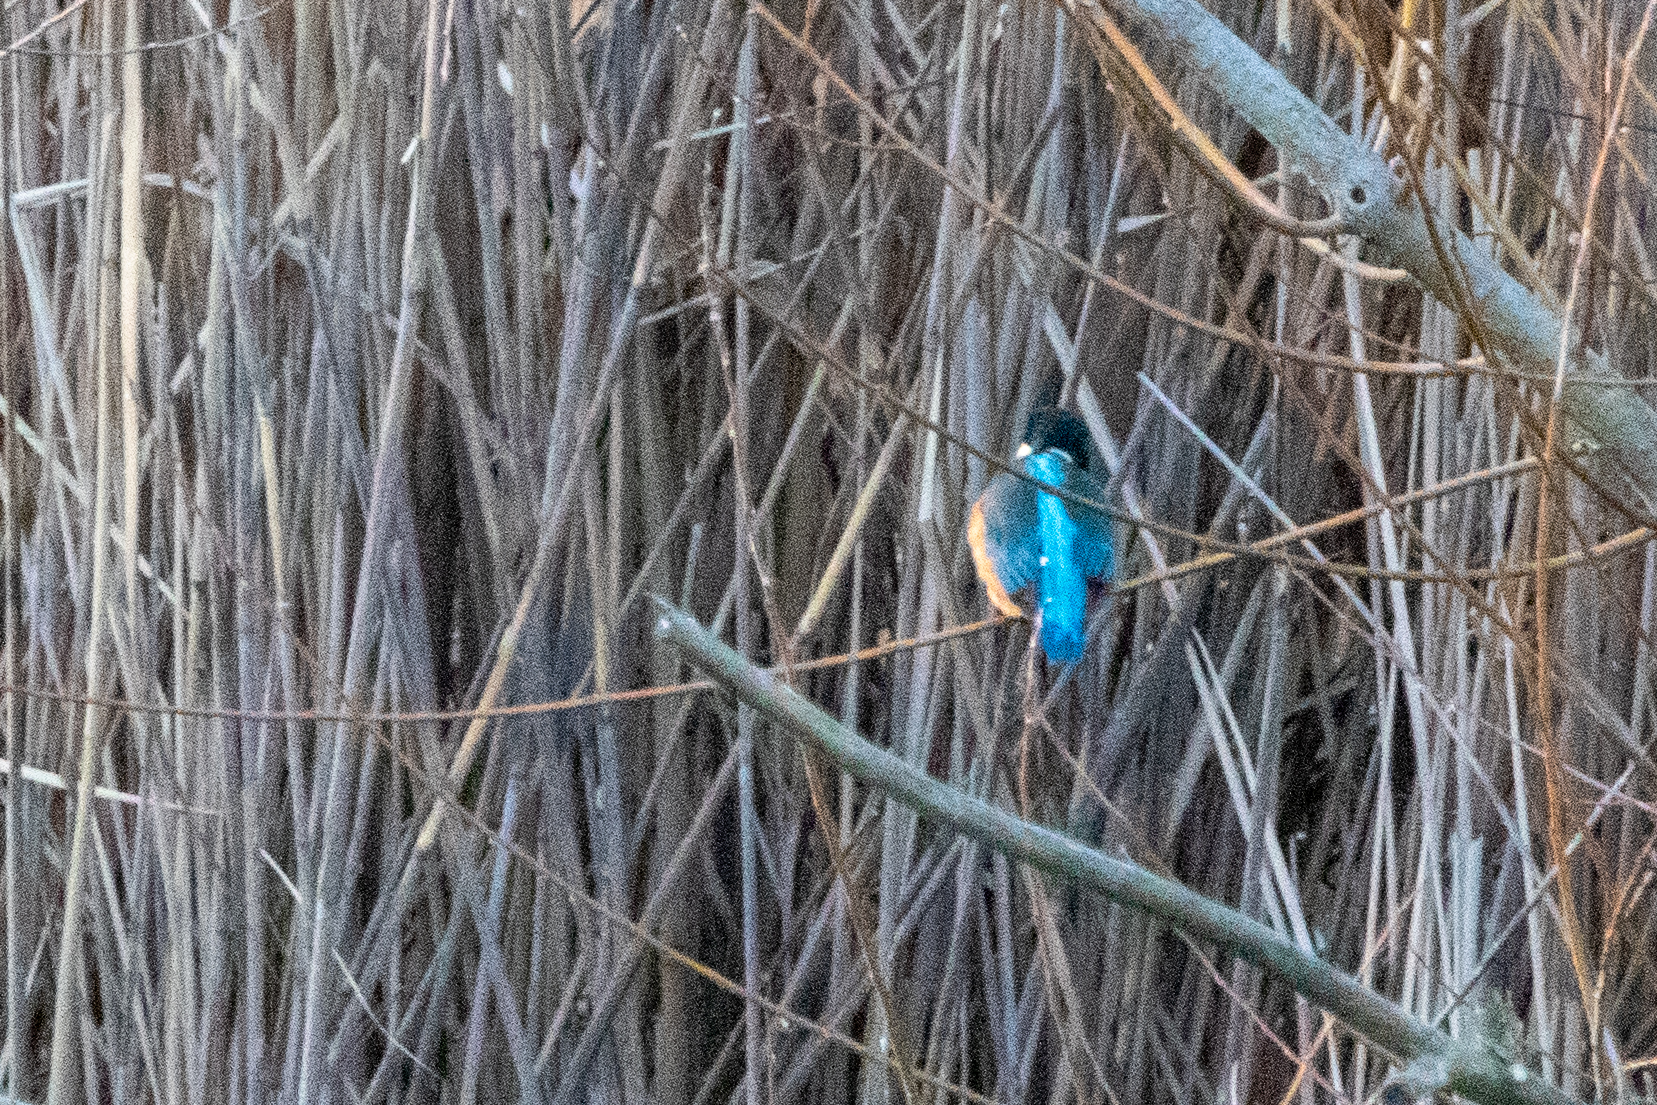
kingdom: Animalia
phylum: Chordata
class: Aves
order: Coraciiformes
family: Alcedinidae
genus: Alcedo
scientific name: Alcedo atthis
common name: Common kingfisher
